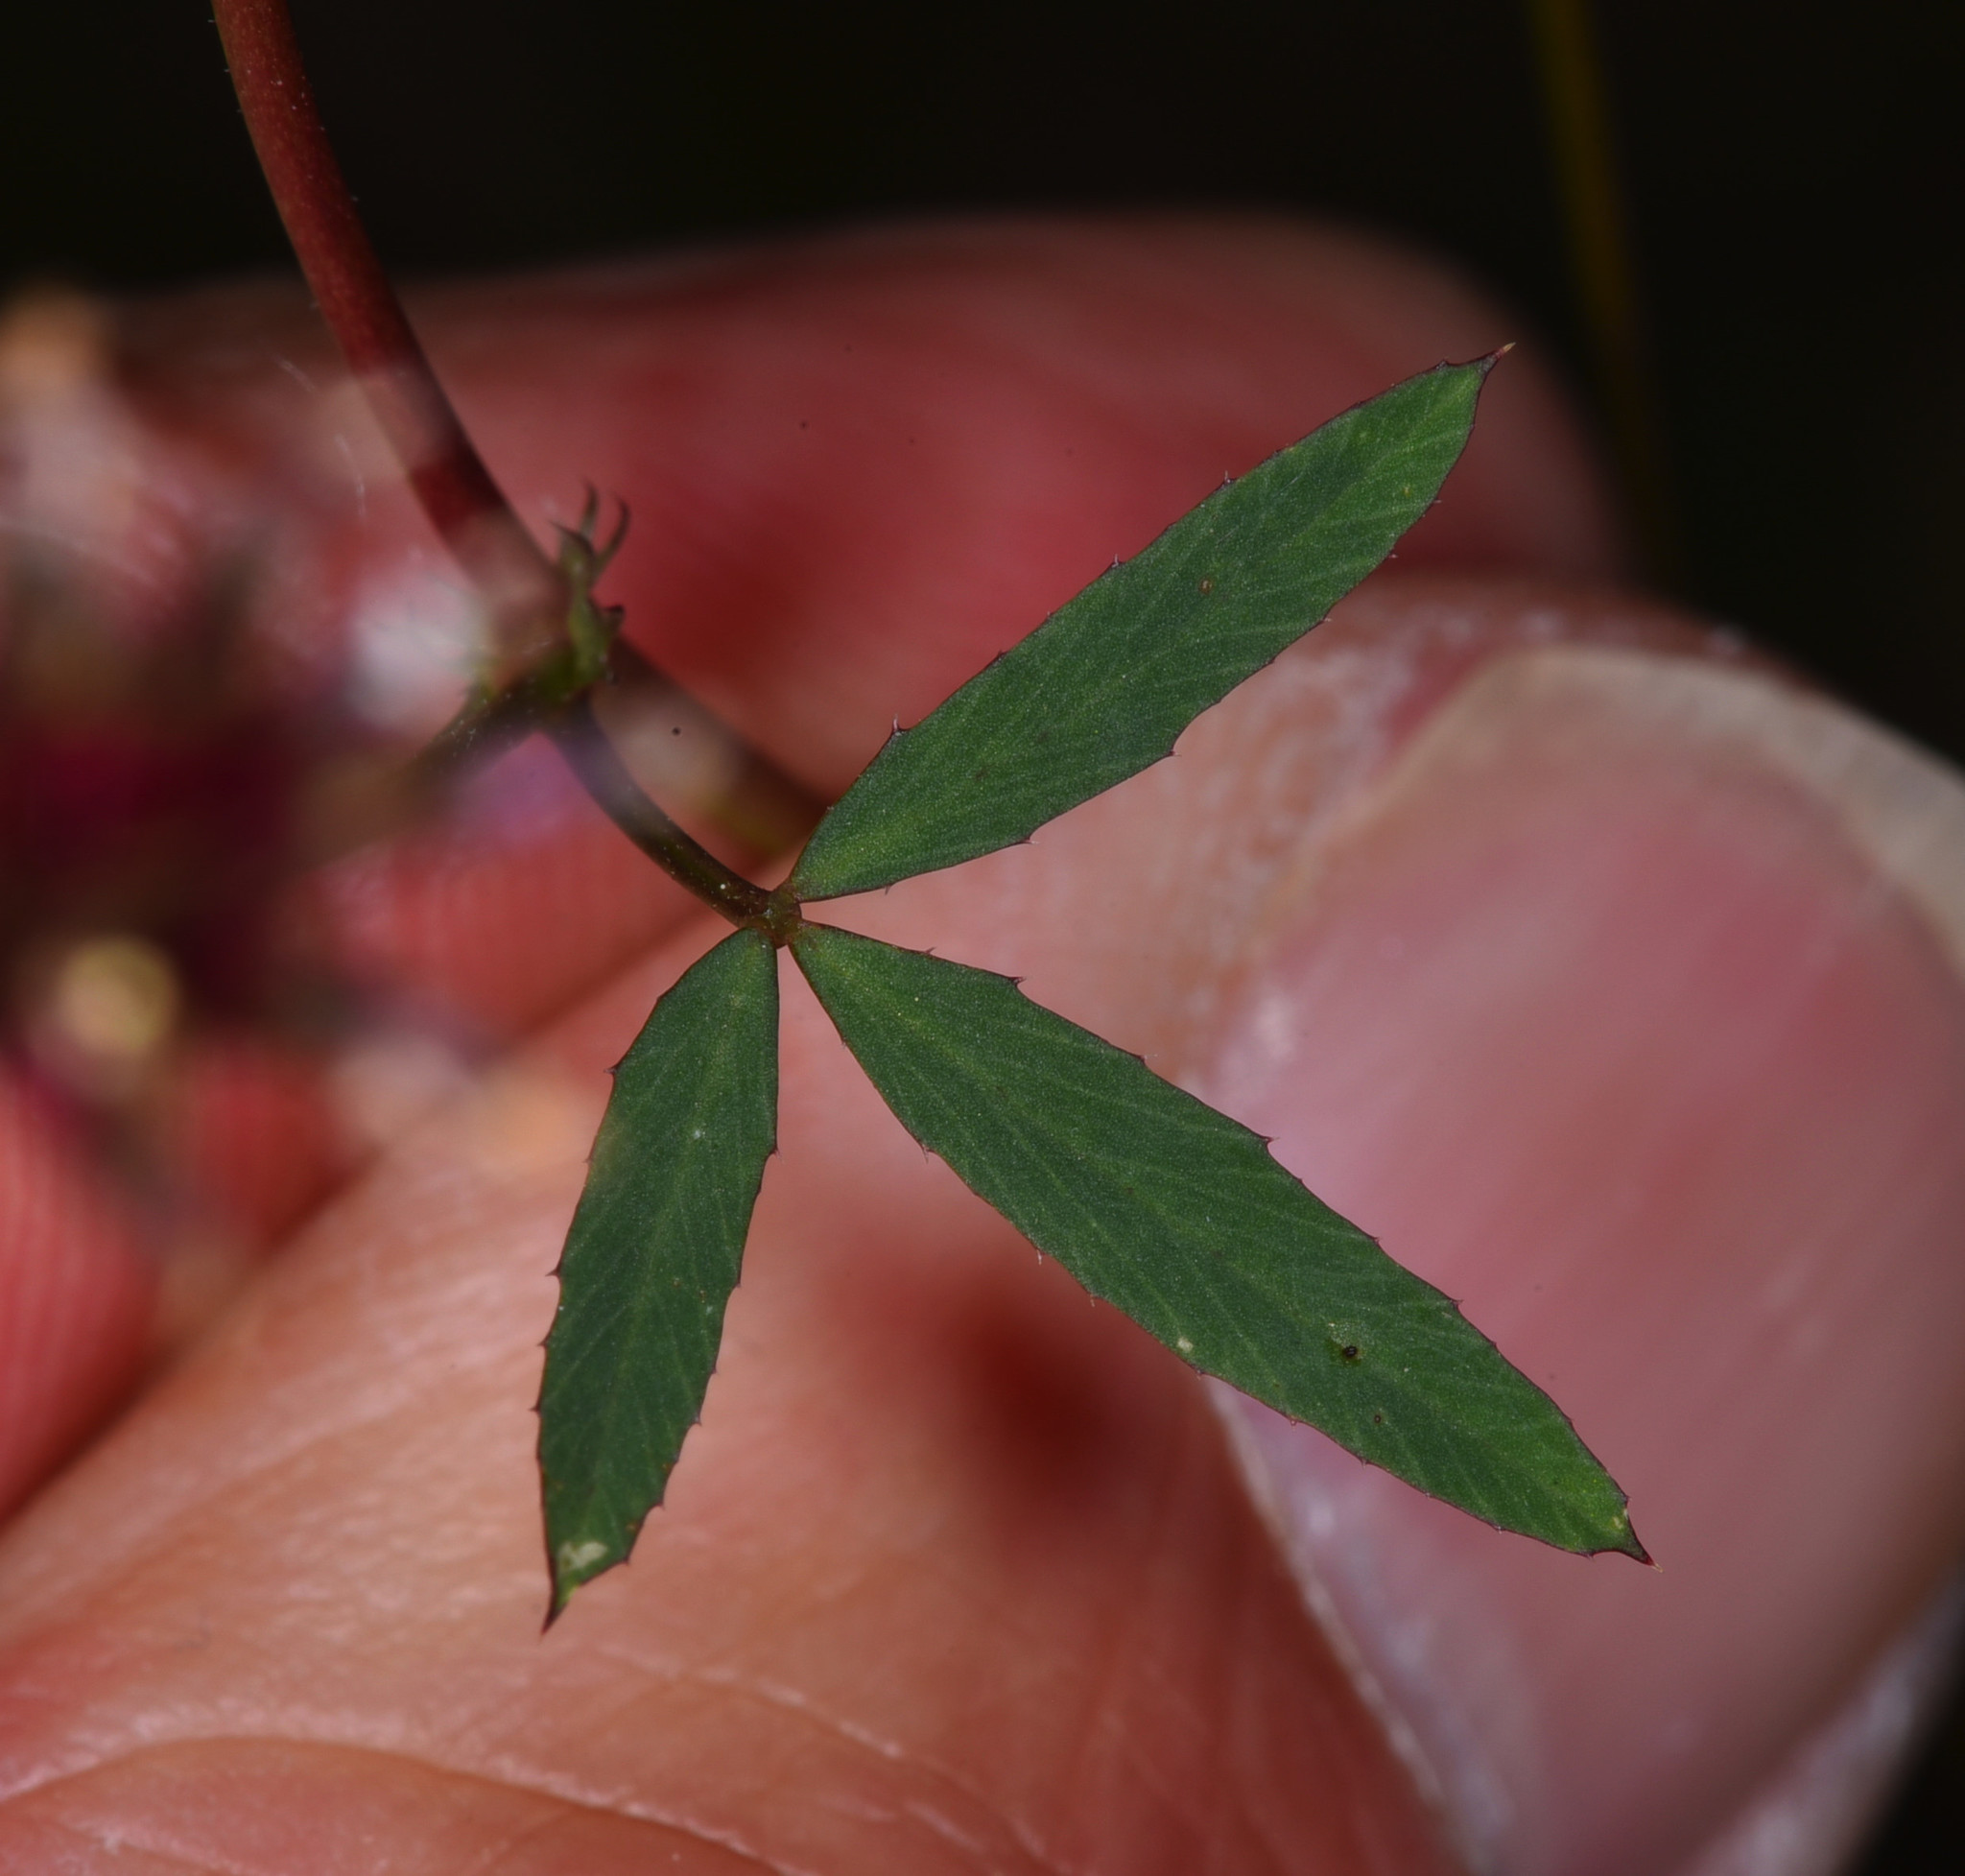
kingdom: Plantae
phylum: Tracheophyta
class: Magnoliopsida
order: Fabales
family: Fabaceae
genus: Trifolium
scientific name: Trifolium willdenovii
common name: Tomcat clover
